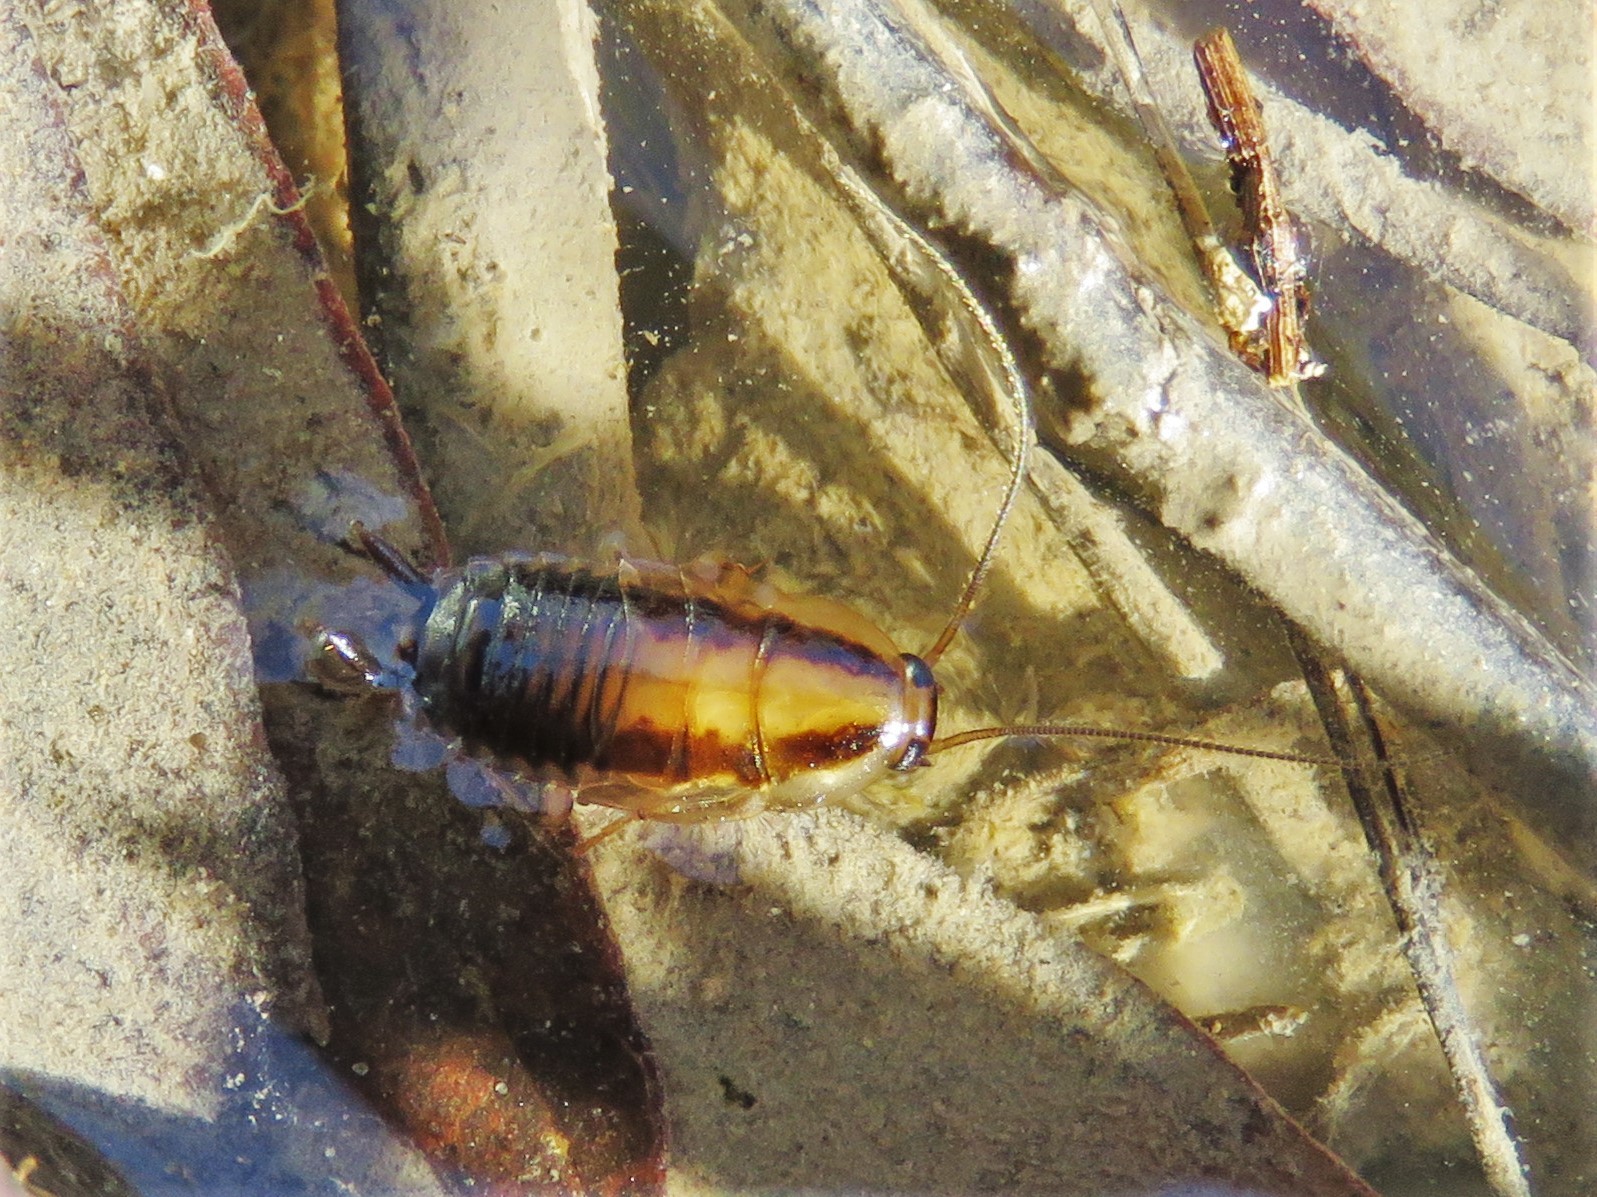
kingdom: Animalia
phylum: Arthropoda
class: Insecta
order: Blattodea
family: Ectobiidae
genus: Blattella
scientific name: Blattella vaga
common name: Field cockroach
